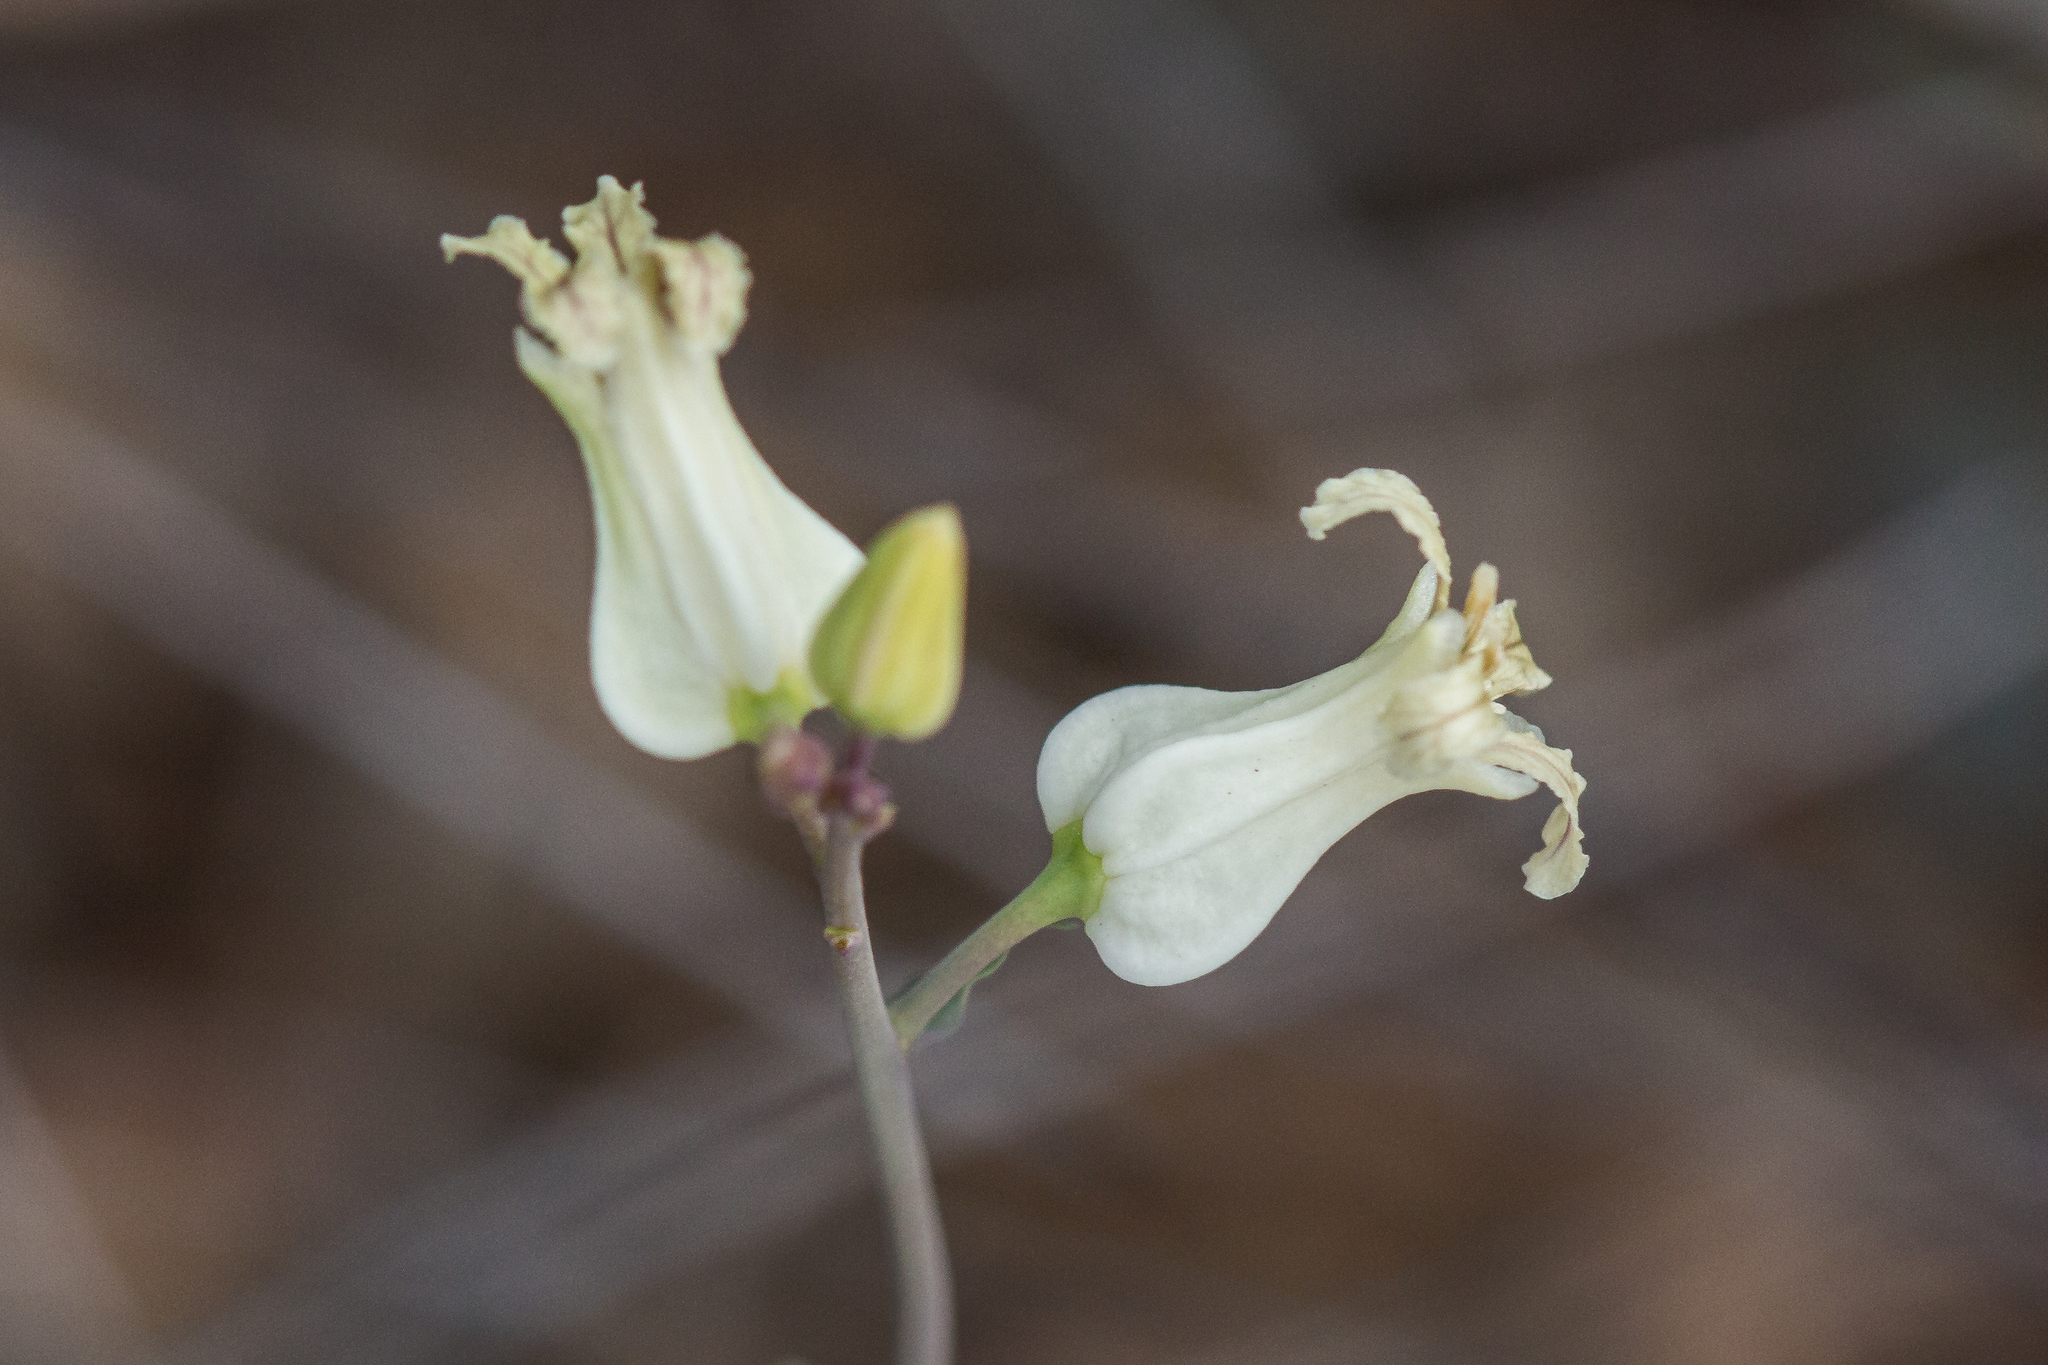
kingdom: Plantae
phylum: Tracheophyta
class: Magnoliopsida
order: Brassicales
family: Brassicaceae
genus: Streptanthus
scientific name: Streptanthus carinatus
